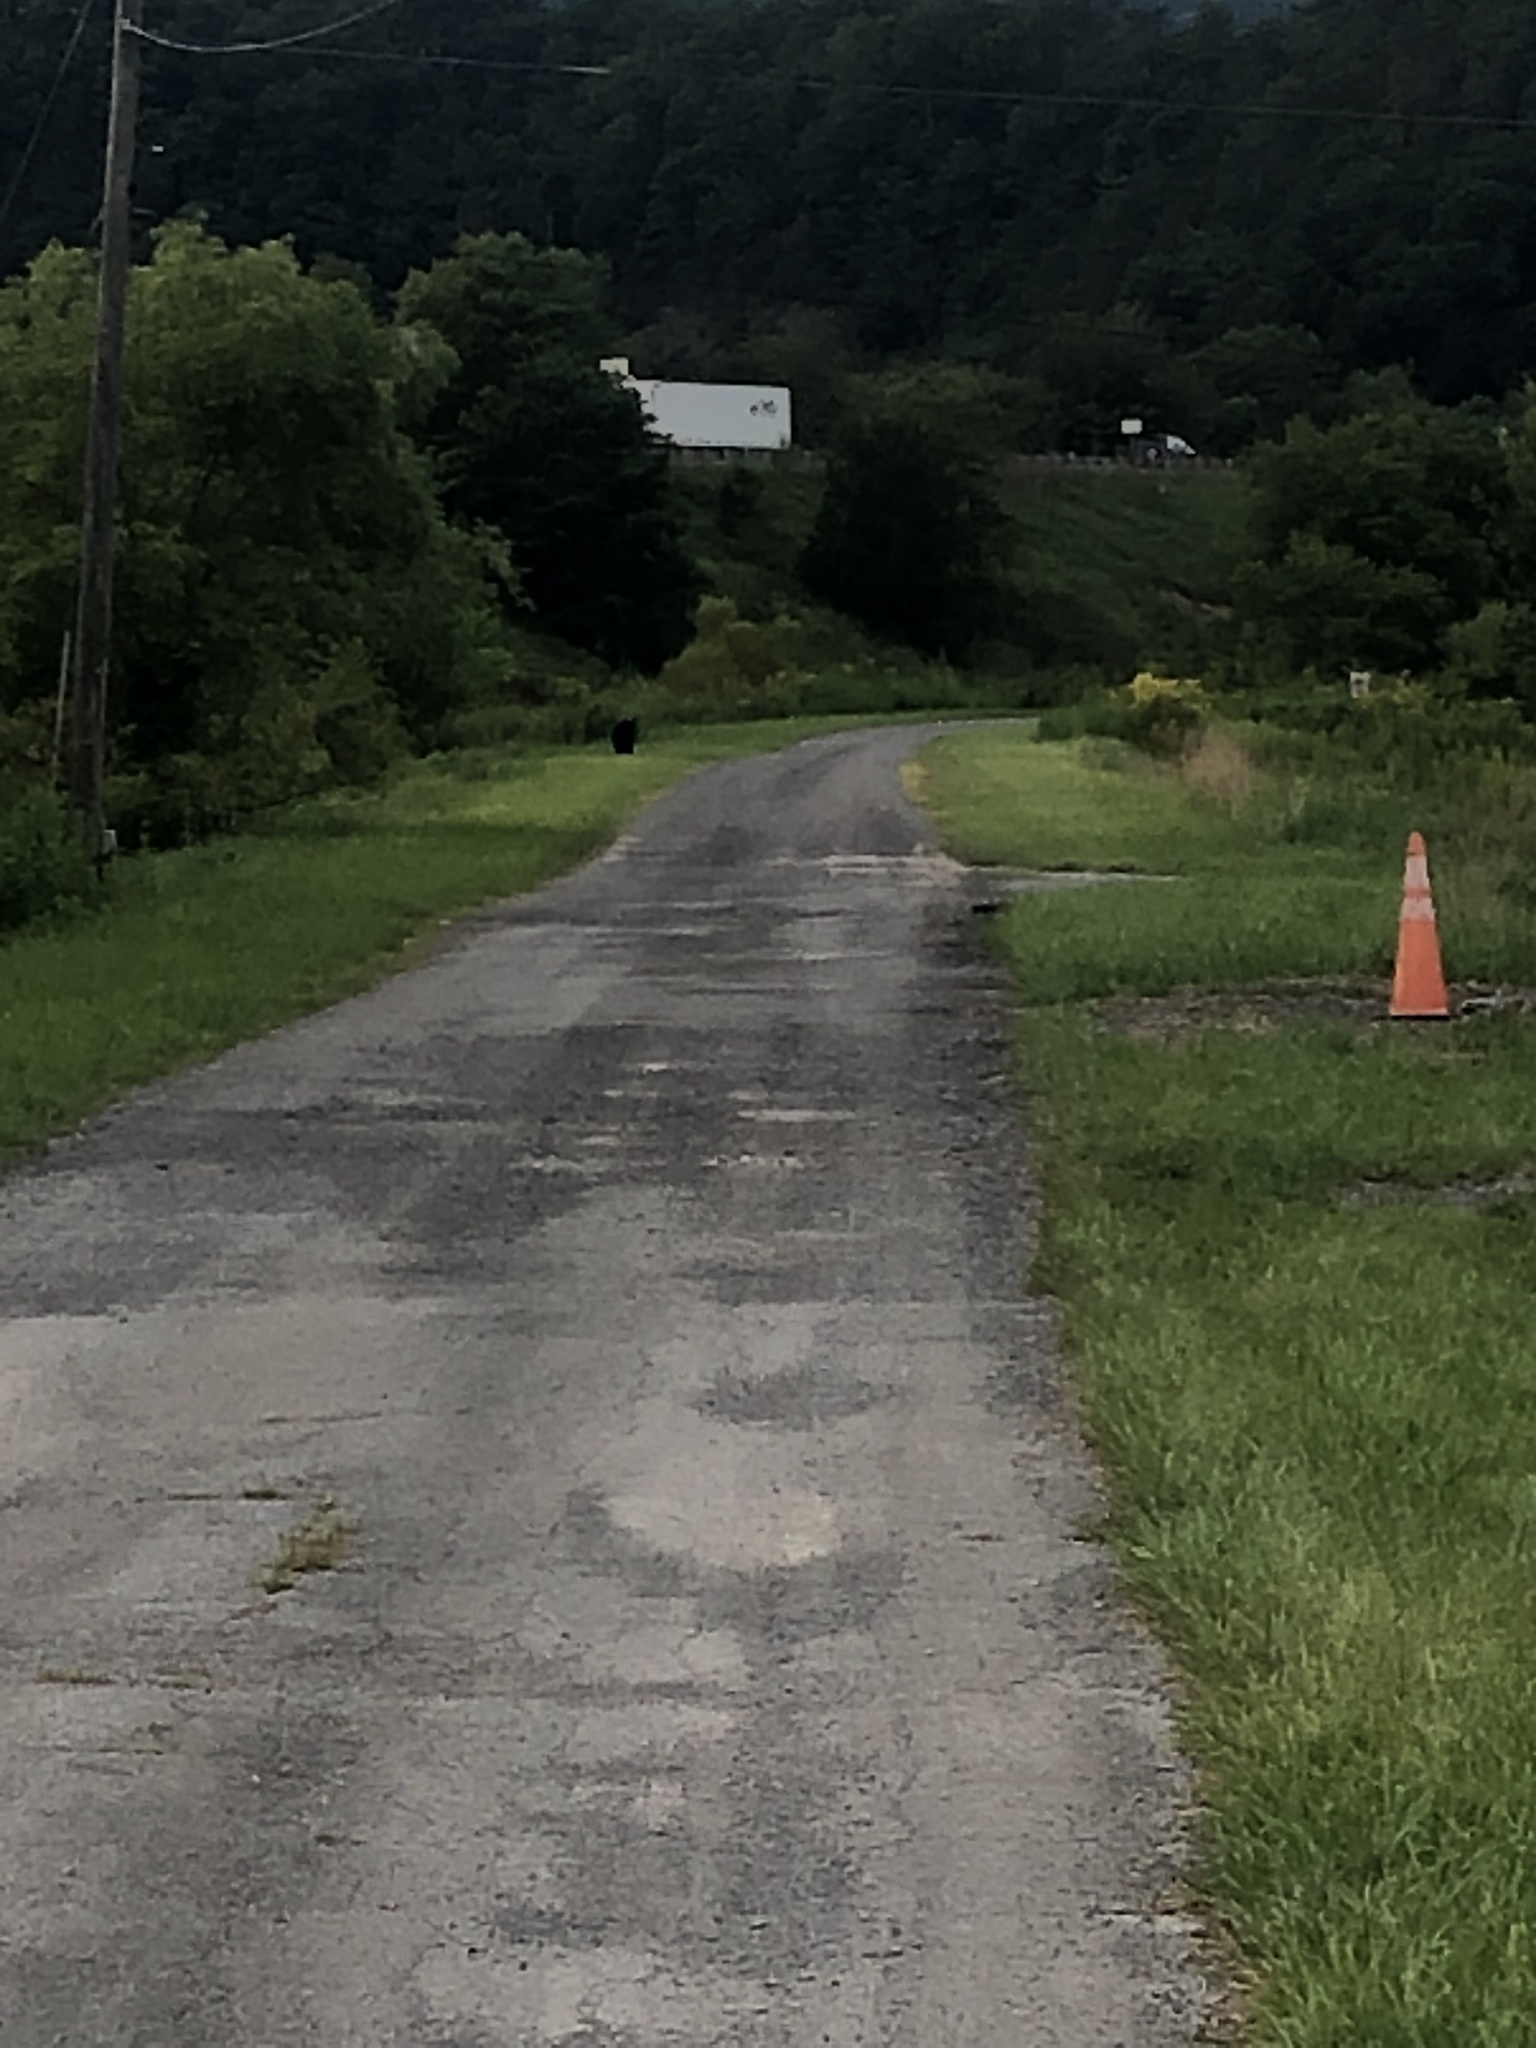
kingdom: Animalia
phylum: Chordata
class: Mammalia
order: Carnivora
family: Ursidae
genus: Ursus
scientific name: Ursus americanus
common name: American black bear
